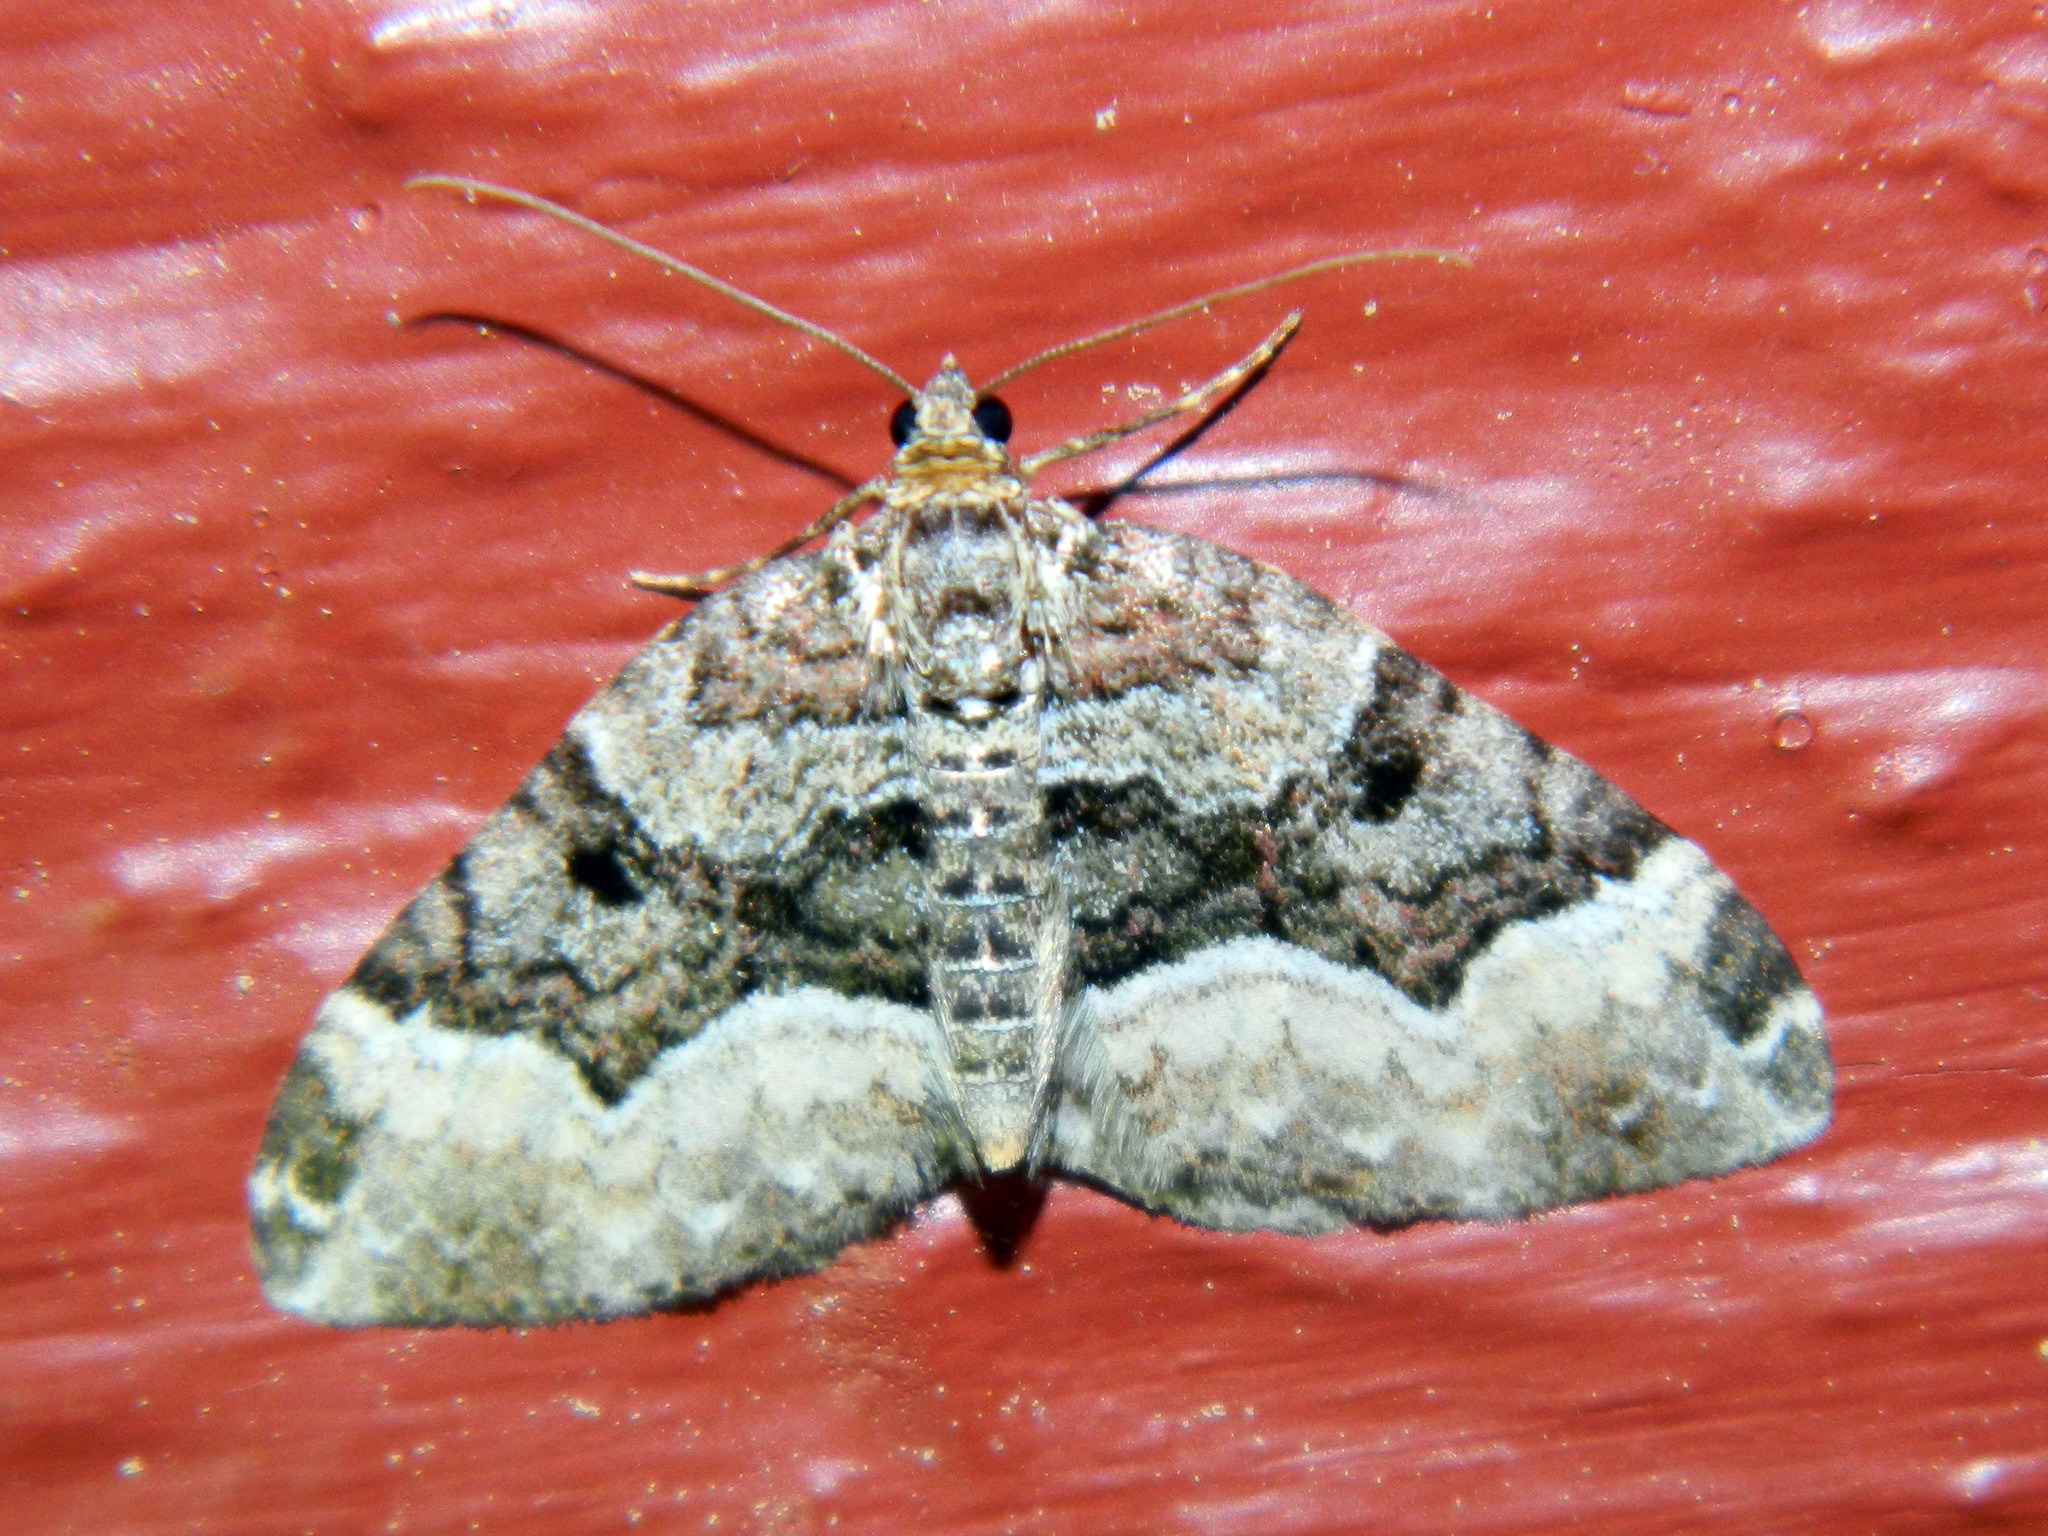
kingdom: Animalia
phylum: Arthropoda
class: Insecta
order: Lepidoptera
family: Geometridae
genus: Xanthorhoe
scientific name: Xanthorhoe lacustrata
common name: Toothed brown carpet
